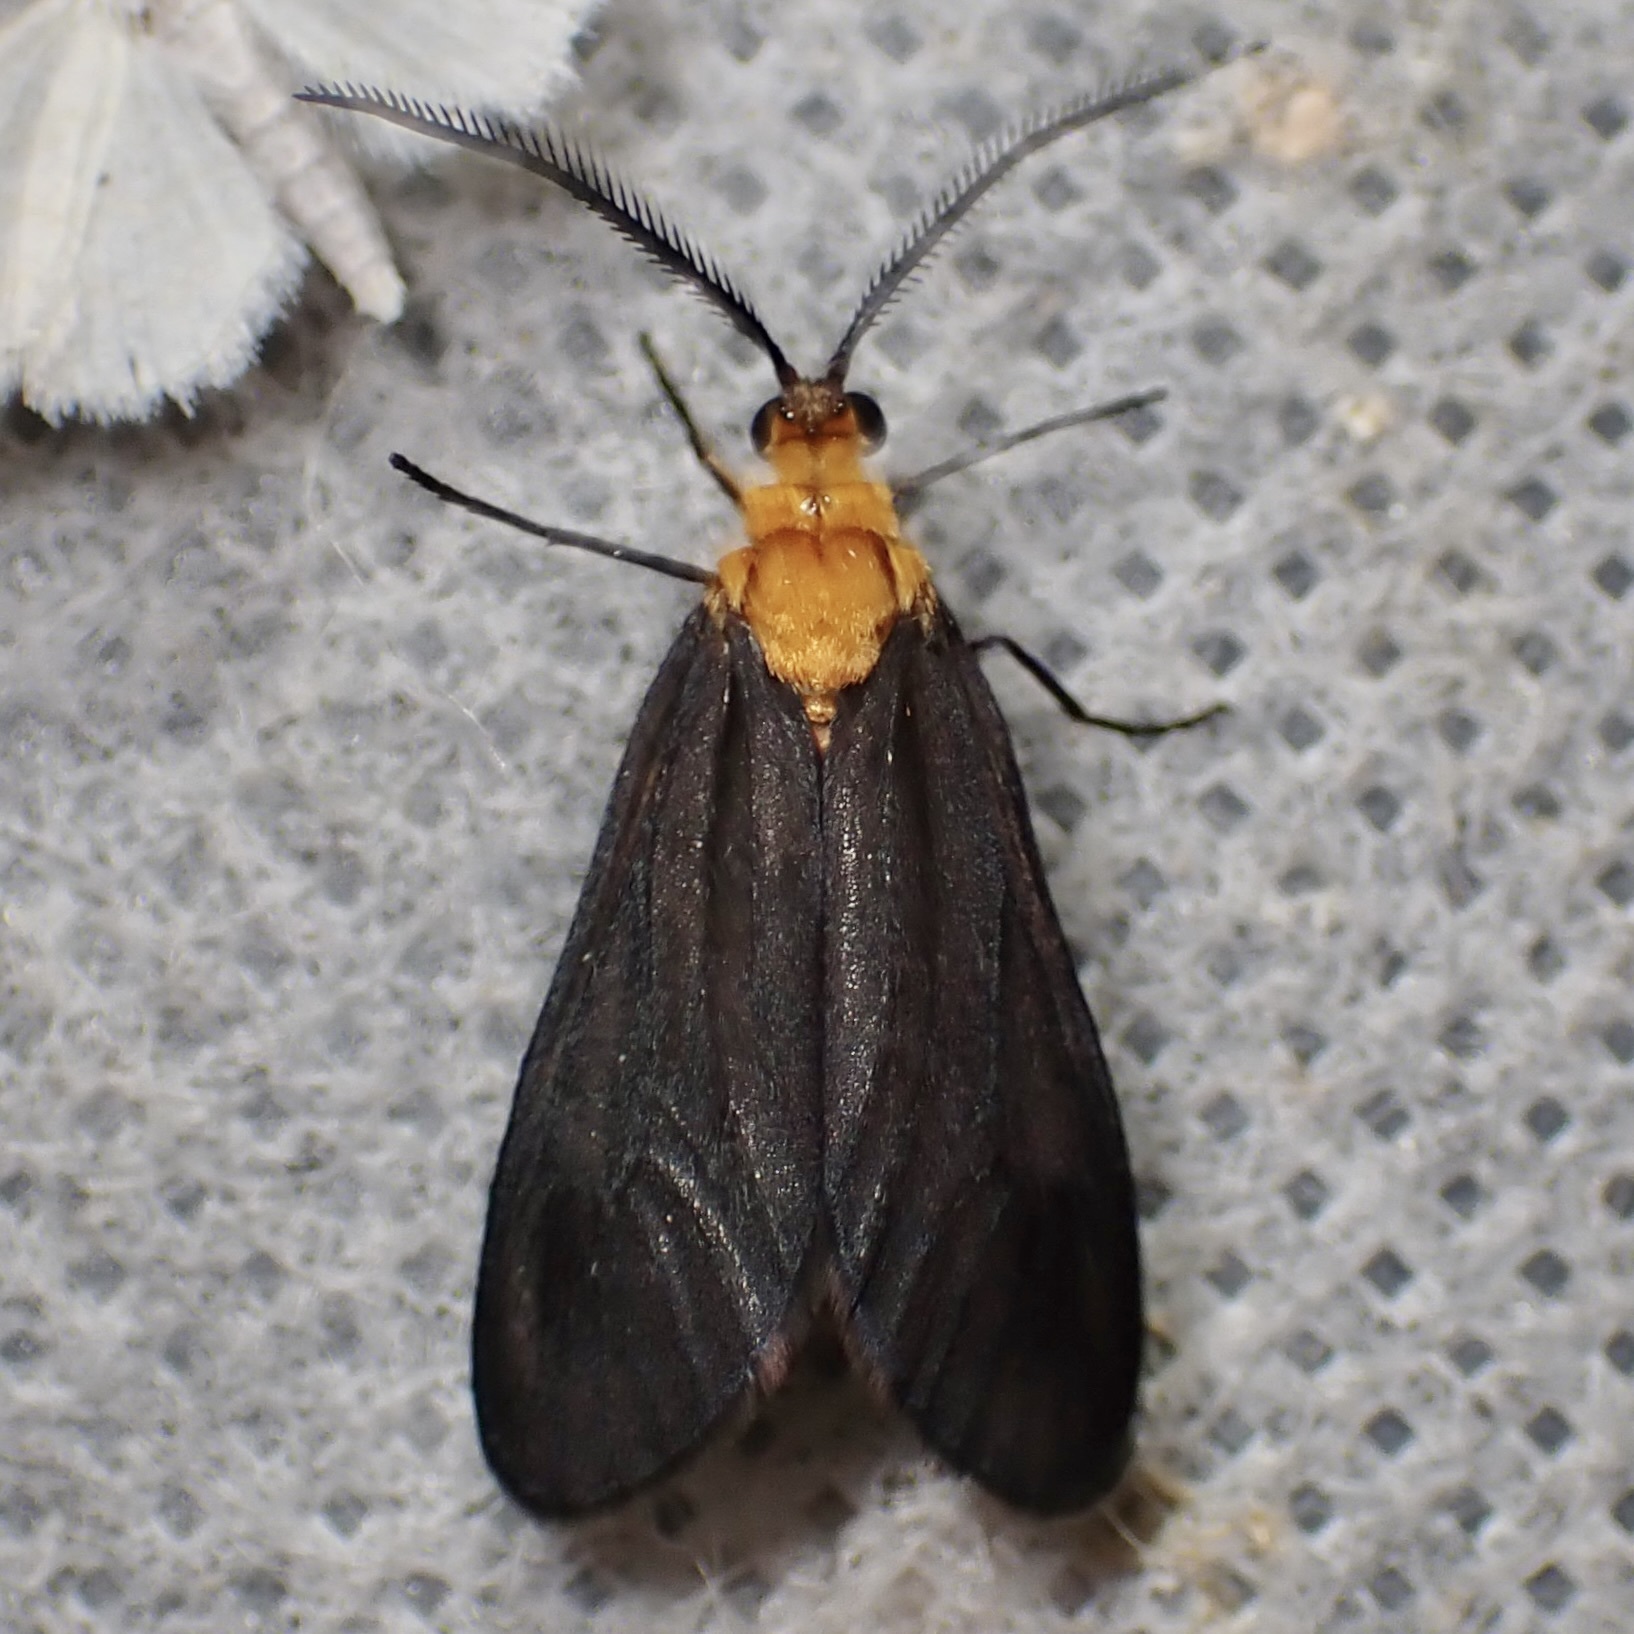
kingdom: Animalia
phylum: Arthropoda
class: Insecta
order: Lepidoptera
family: Zygaenidae
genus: Neoilliberis
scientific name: Neoilliberis fusca
